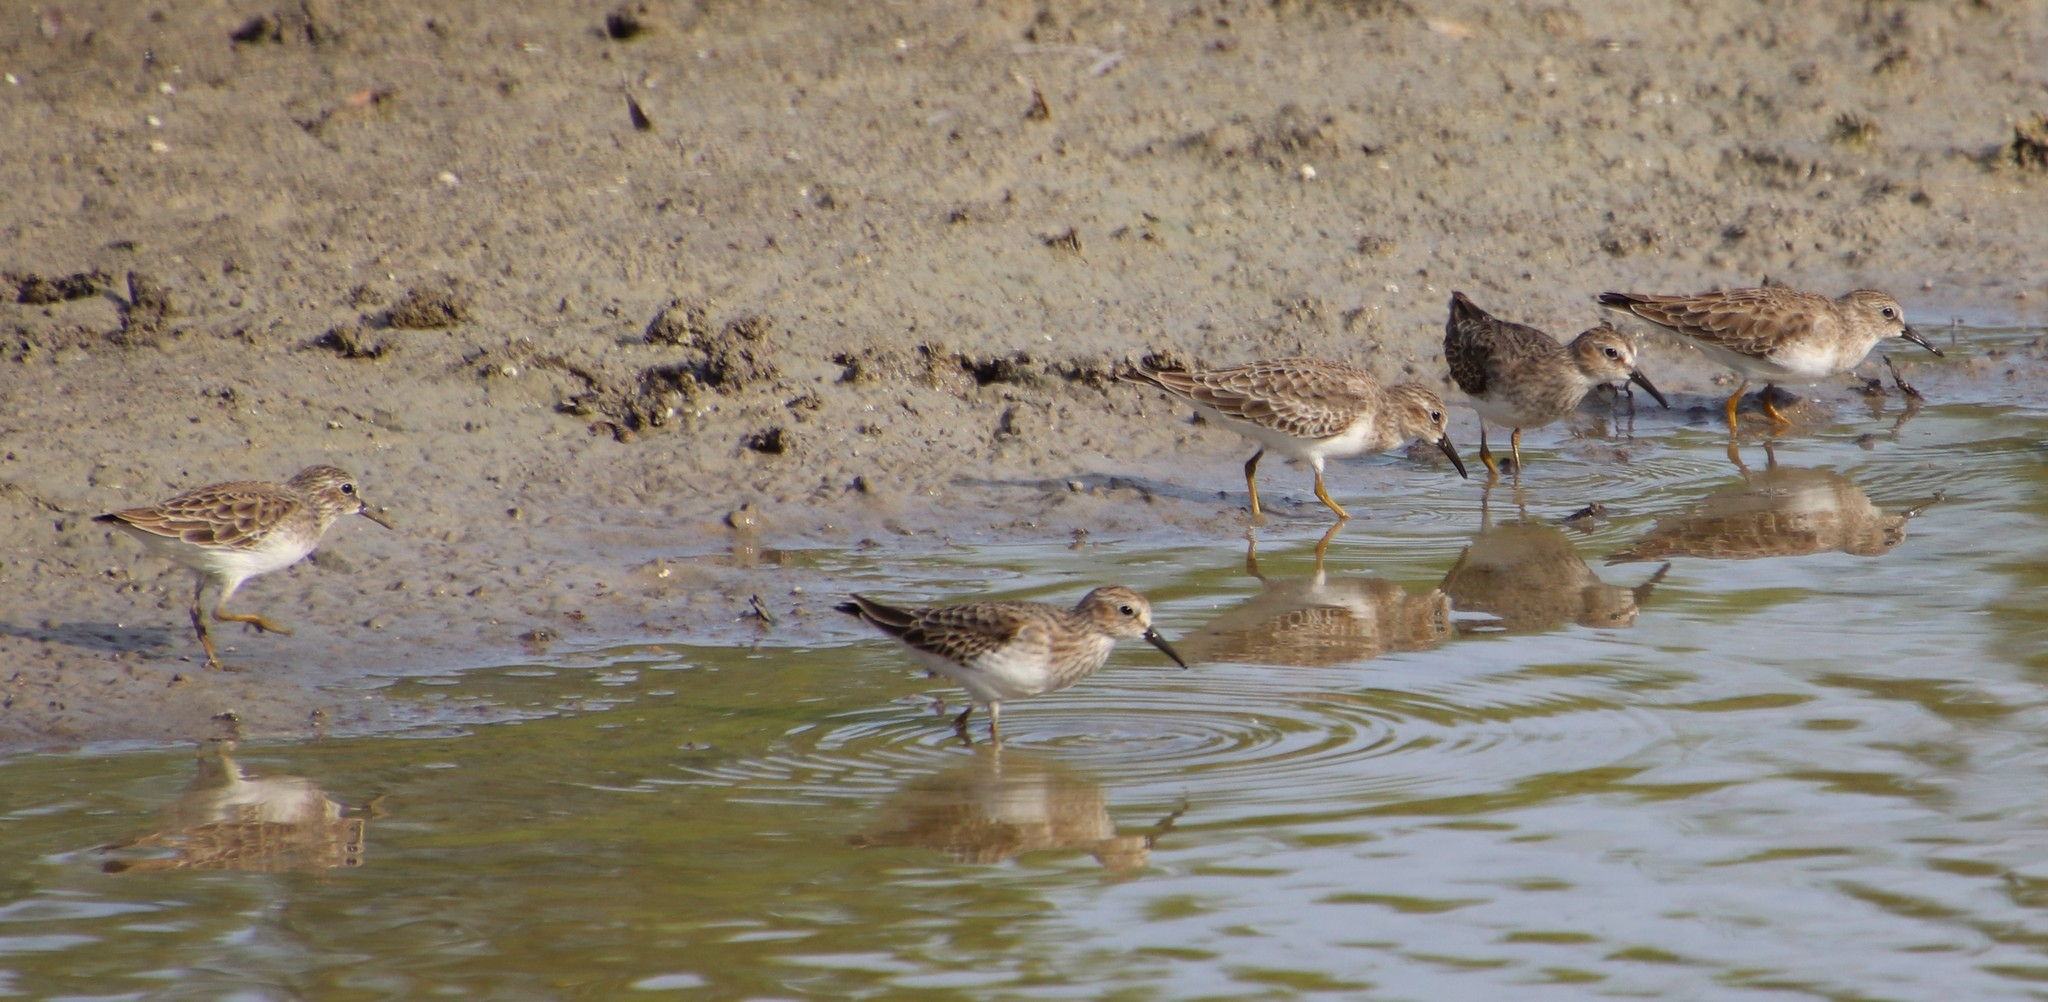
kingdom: Animalia
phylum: Chordata
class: Aves
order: Charadriiformes
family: Scolopacidae
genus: Calidris
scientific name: Calidris minutilla
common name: Least sandpiper
